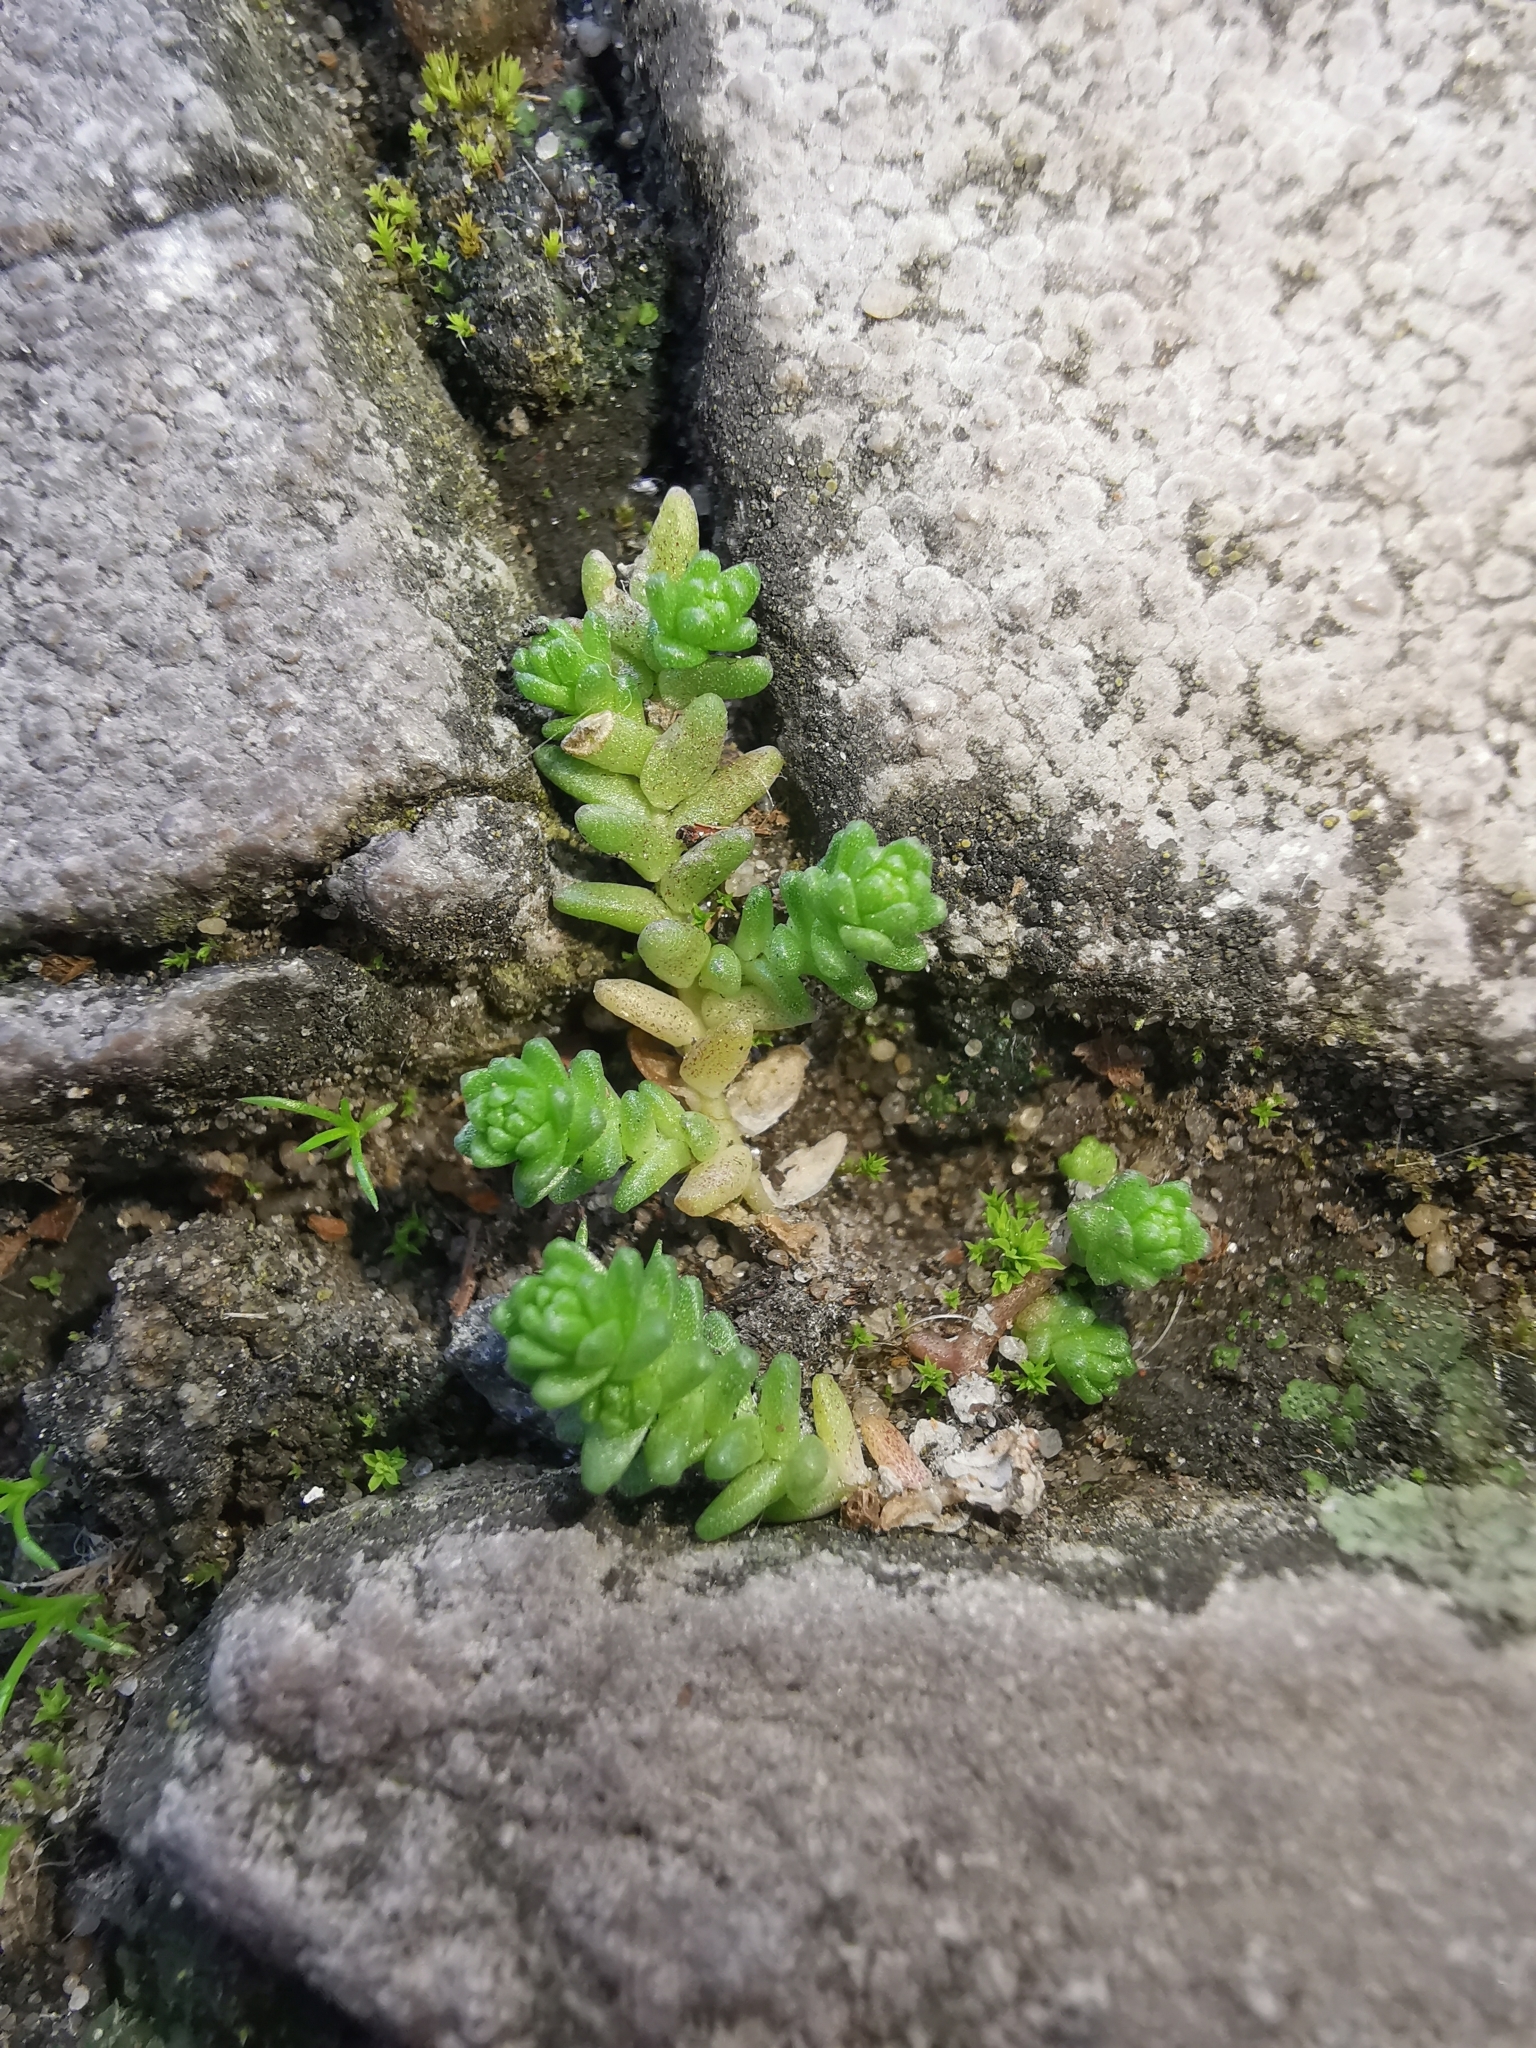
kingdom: Plantae
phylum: Tracheophyta
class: Magnoliopsida
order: Saxifragales
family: Crassulaceae
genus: Sedum
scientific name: Sedum acre
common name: Biting stonecrop
